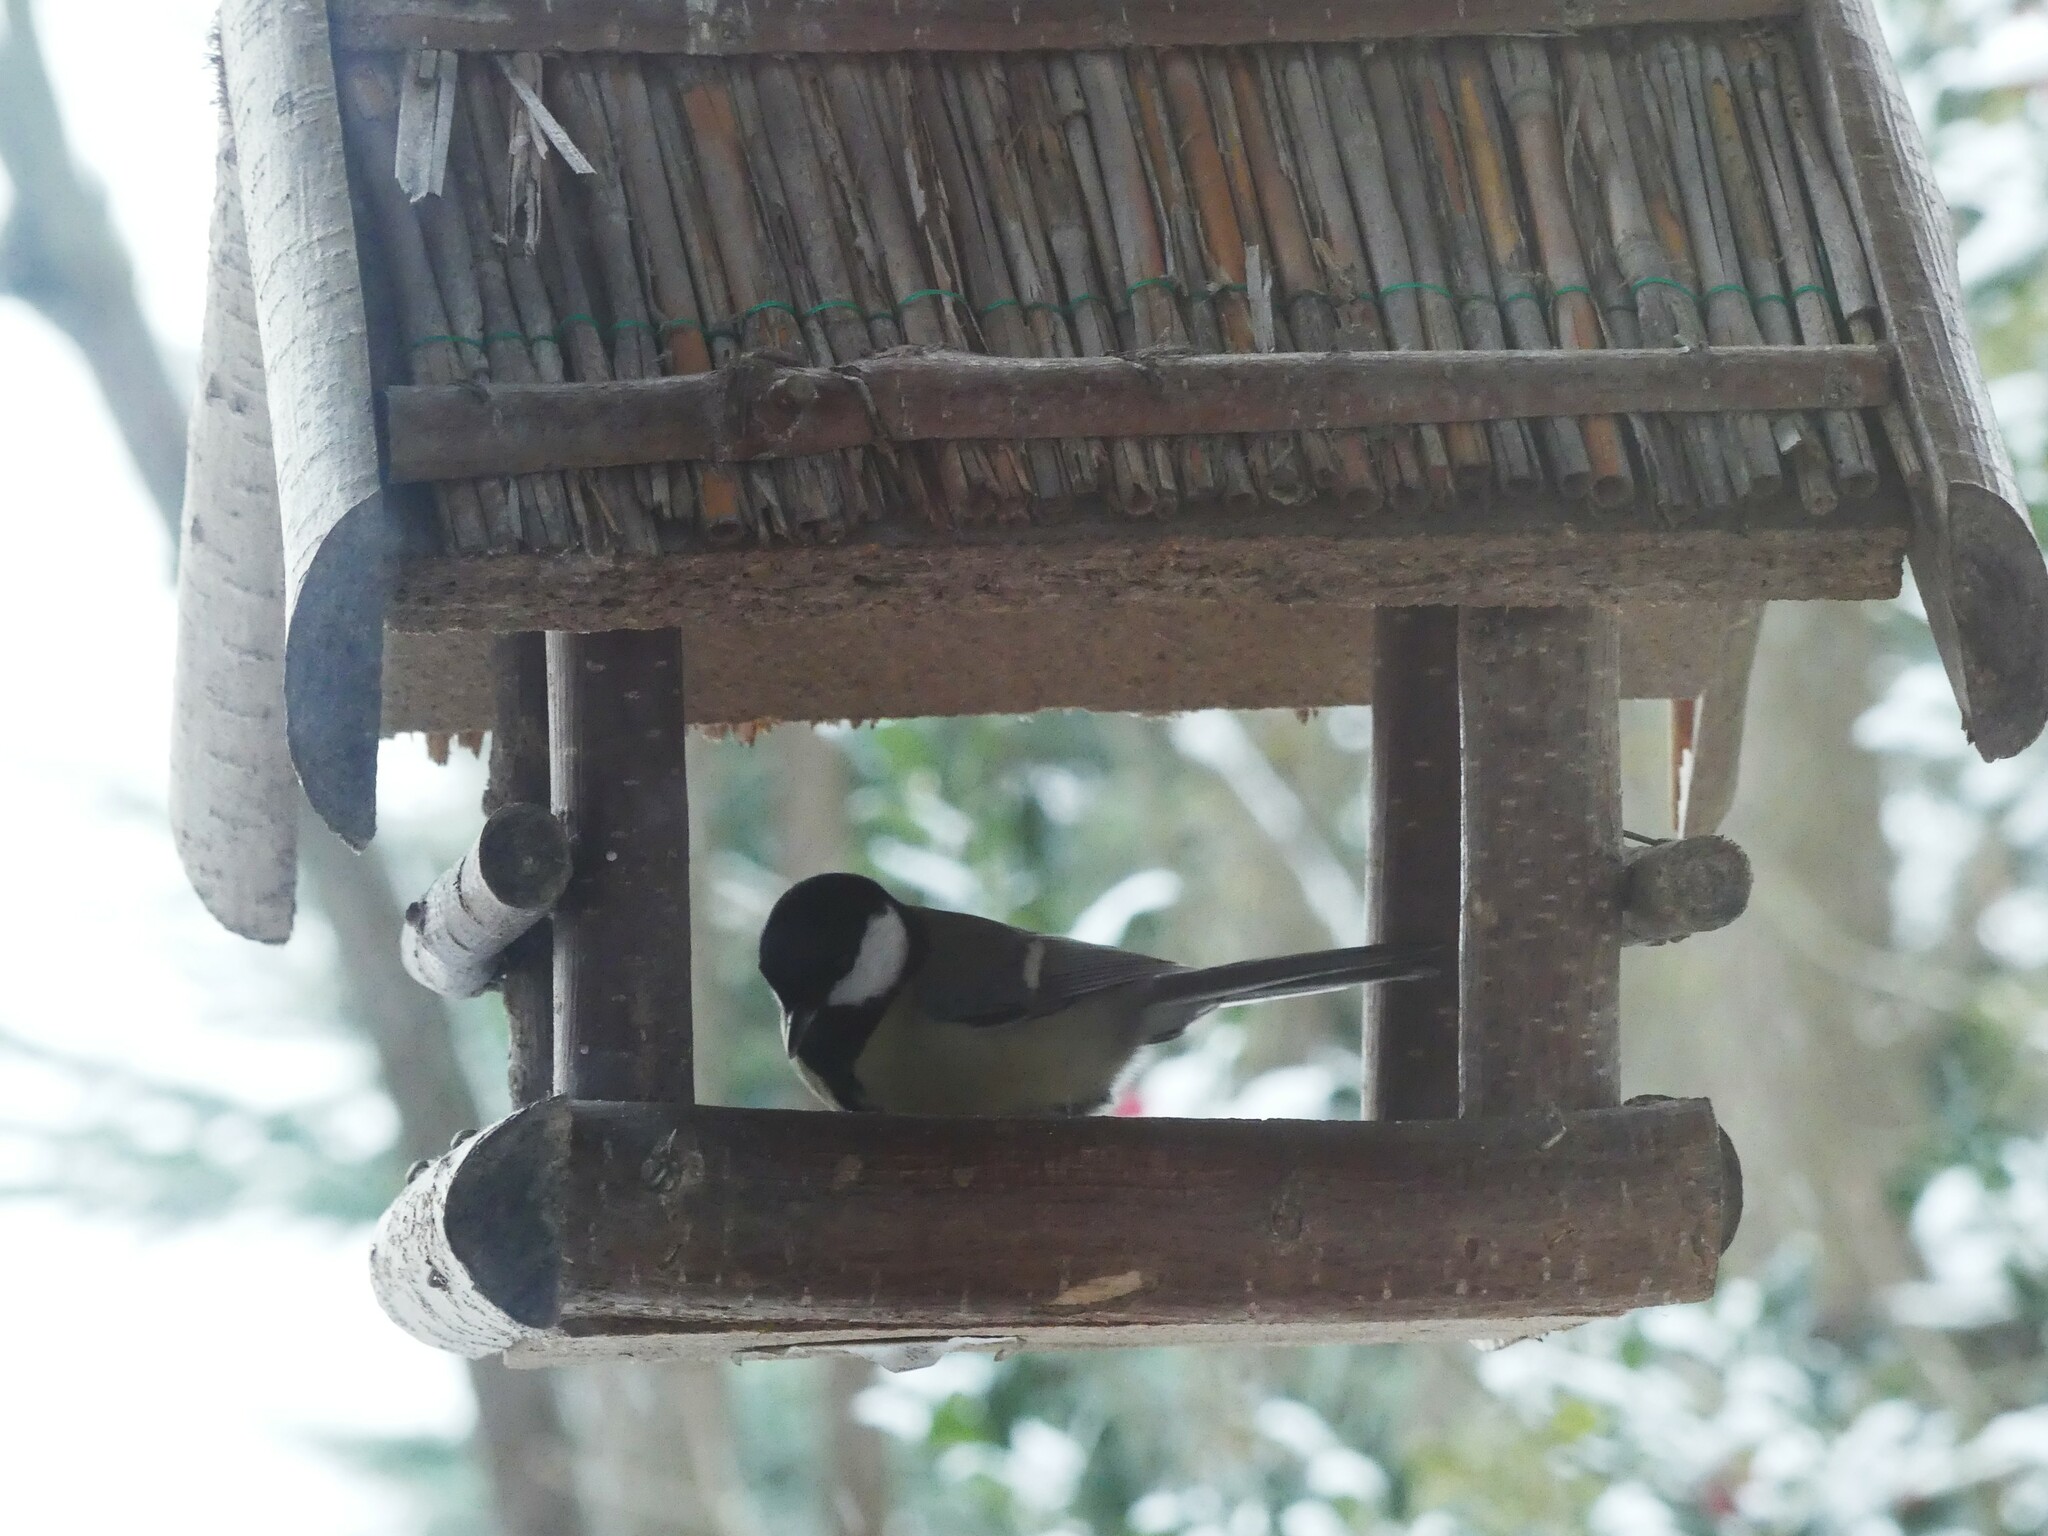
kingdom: Animalia
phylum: Chordata
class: Aves
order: Passeriformes
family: Paridae
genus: Parus
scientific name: Parus major
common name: Great tit
